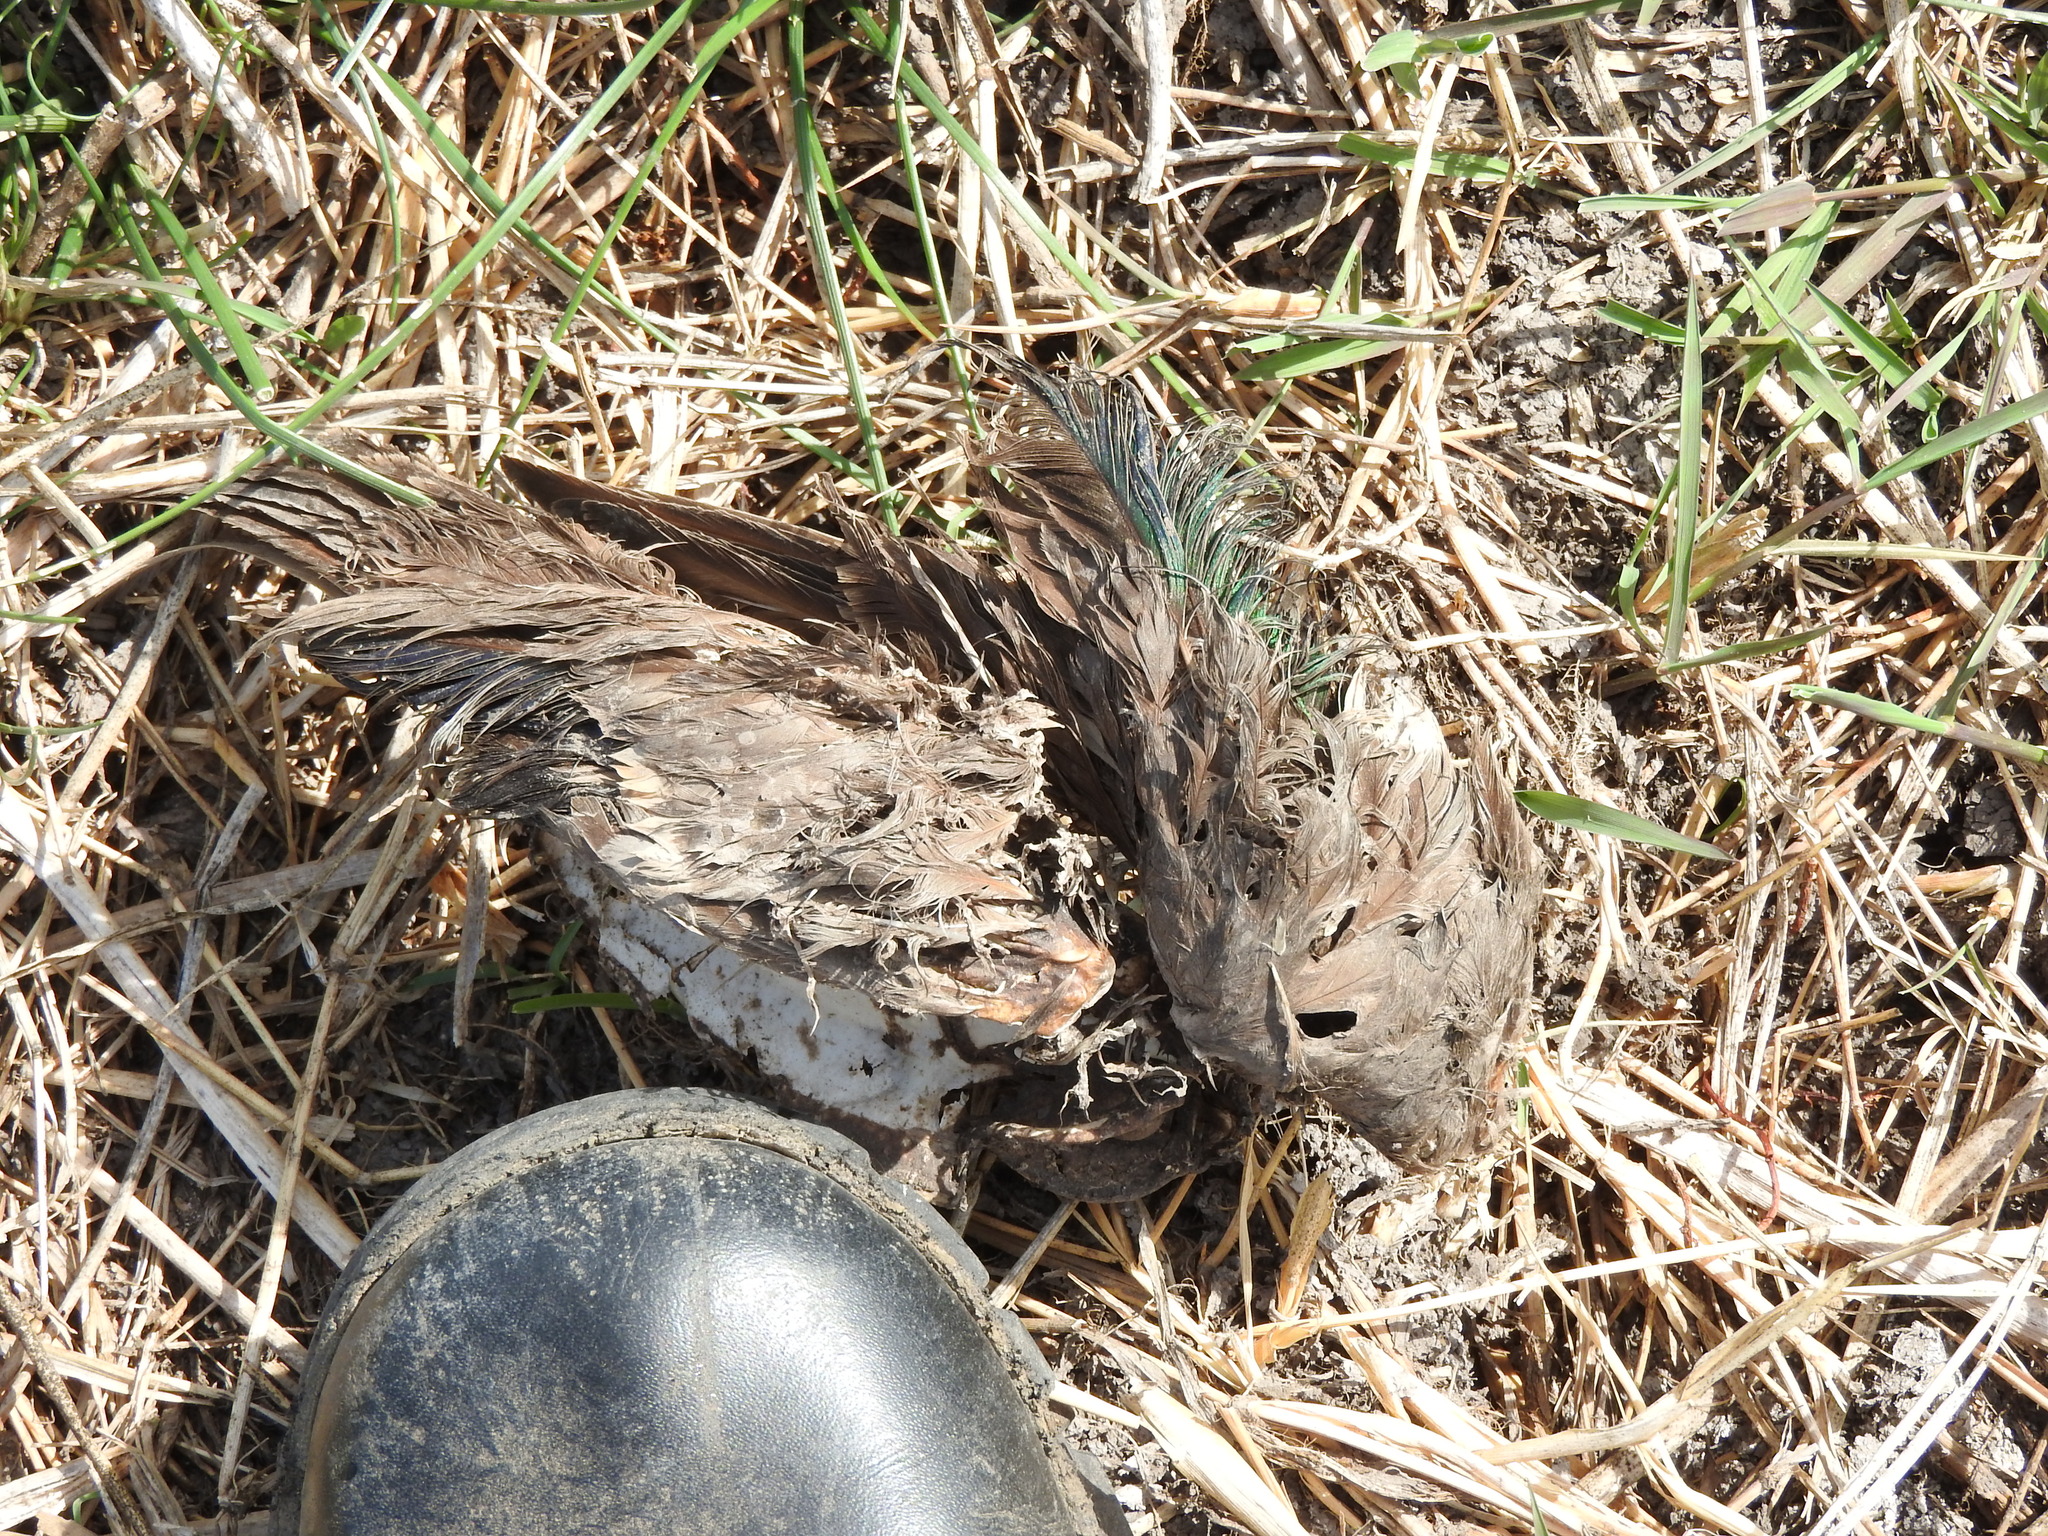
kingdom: Animalia
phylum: Chordata
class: Aves
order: Anseriformes
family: Anatidae
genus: Mareca
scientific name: Mareca strepera
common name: Gadwall
